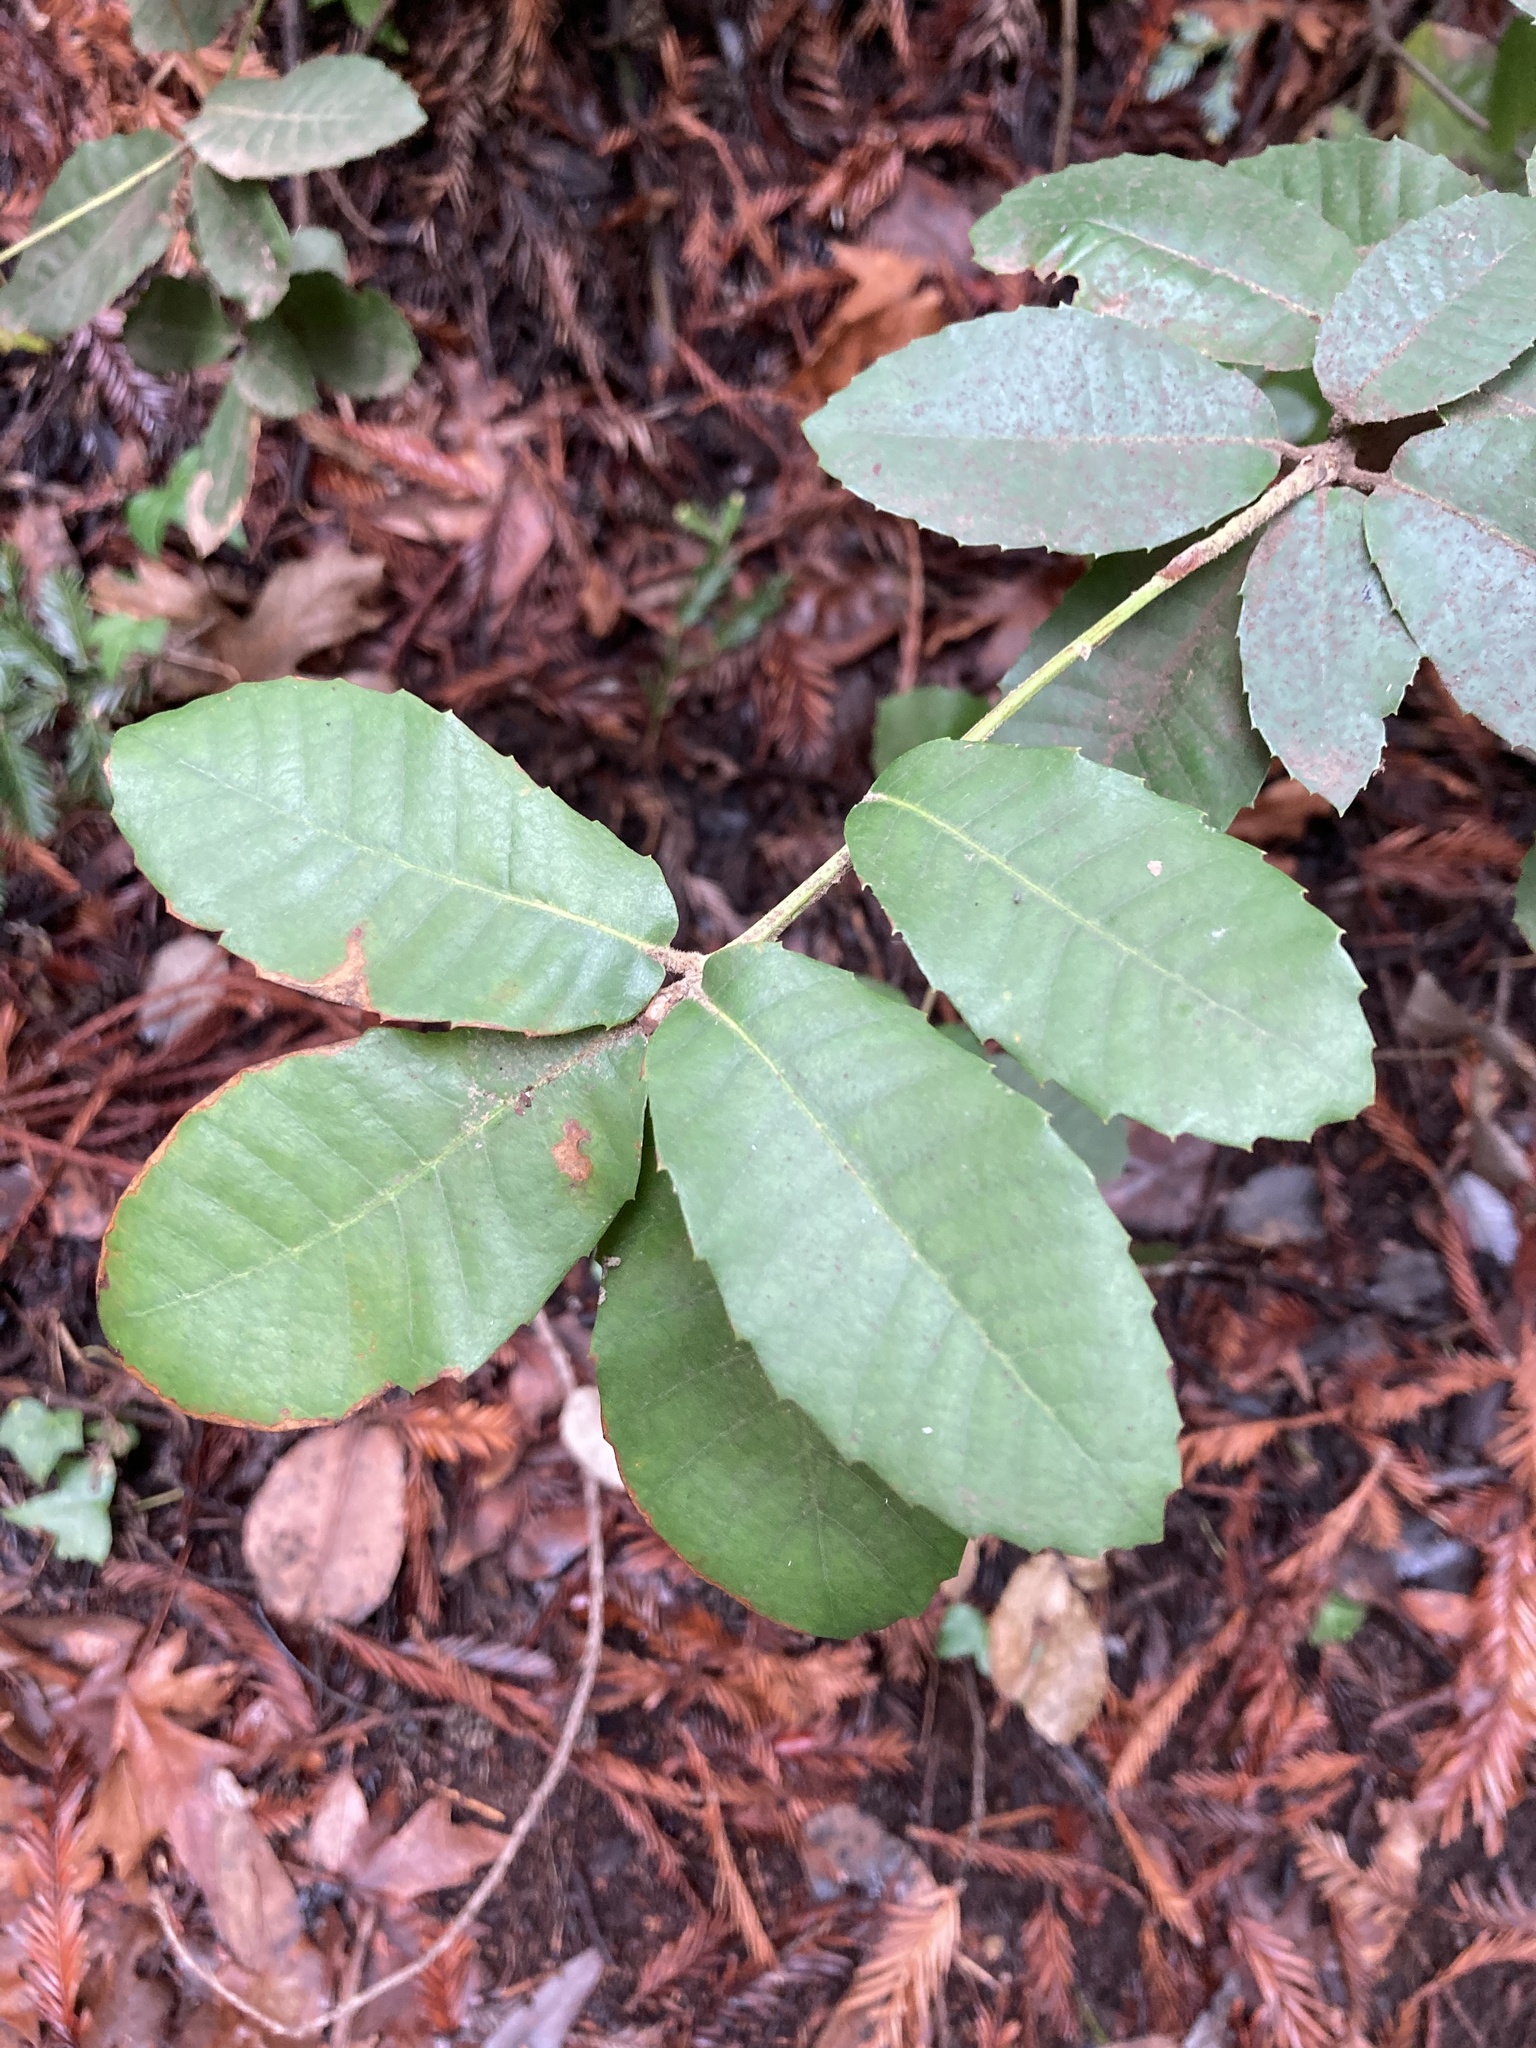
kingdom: Plantae
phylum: Tracheophyta
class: Magnoliopsida
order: Fagales
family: Fagaceae
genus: Notholithocarpus
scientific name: Notholithocarpus densiflorus
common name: Tan bark oak
